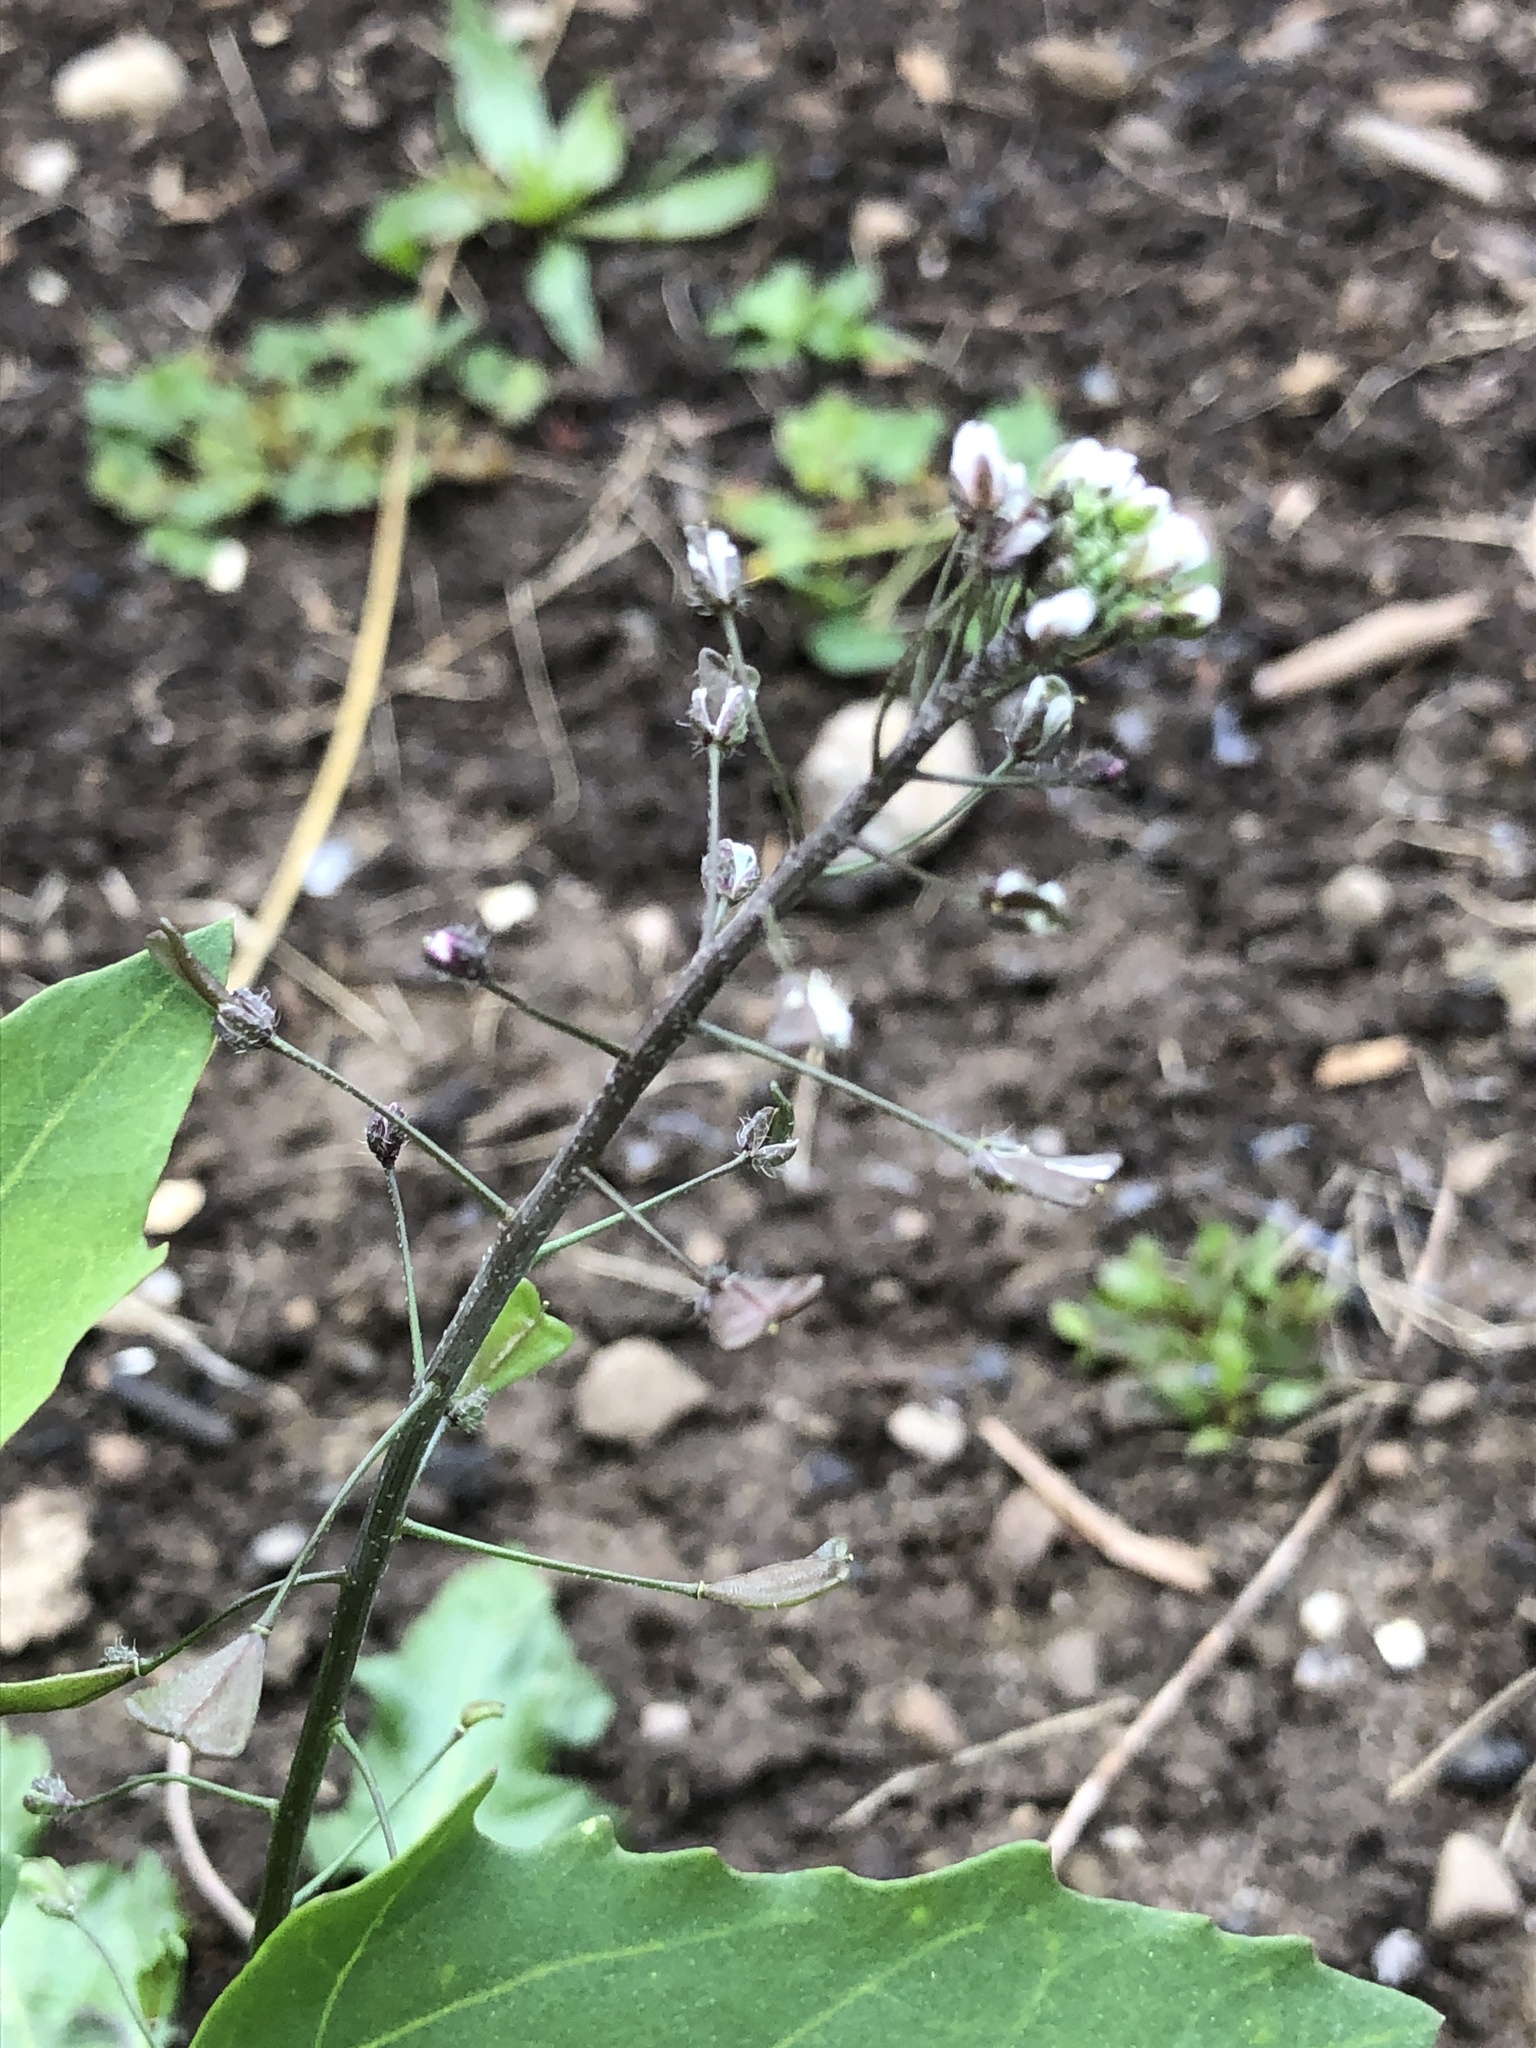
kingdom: Plantae
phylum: Tracheophyta
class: Magnoliopsida
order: Brassicales
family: Brassicaceae
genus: Capsella
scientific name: Capsella bursa-pastoris
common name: Shepherd's purse
